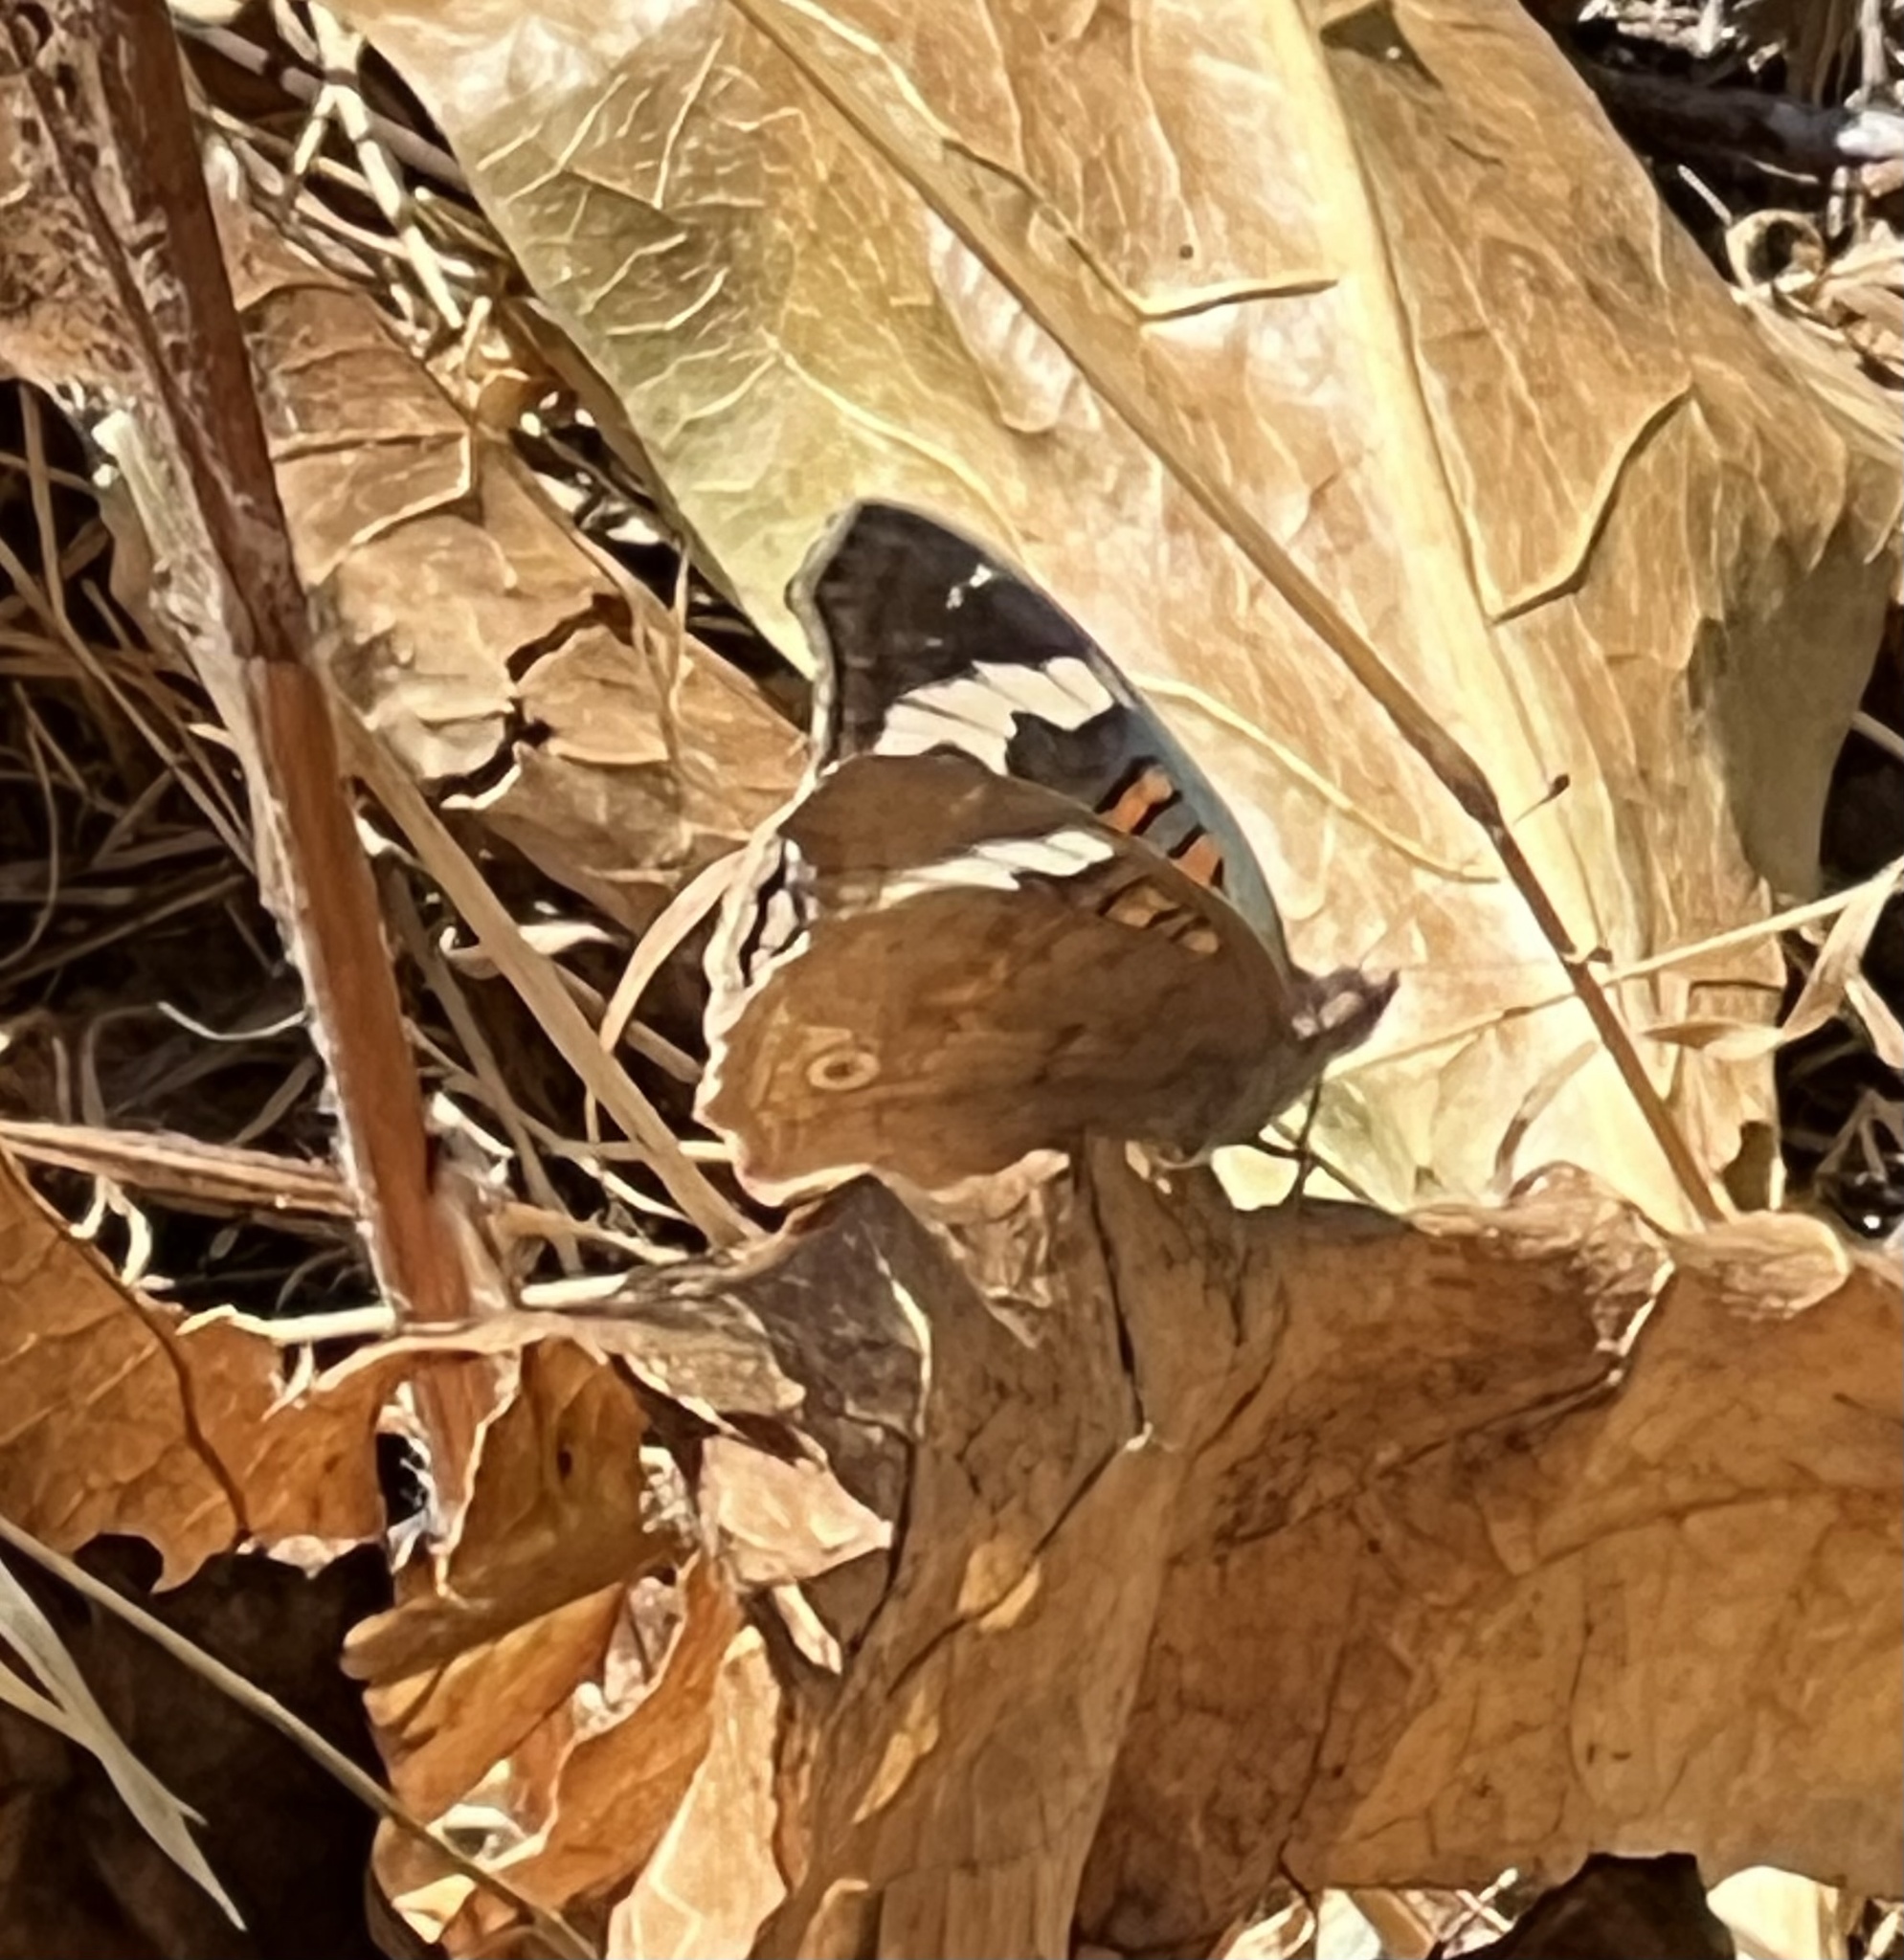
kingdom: Animalia
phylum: Arthropoda
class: Insecta
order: Lepidoptera
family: Nymphalidae
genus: Junonia
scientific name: Junonia grisea
